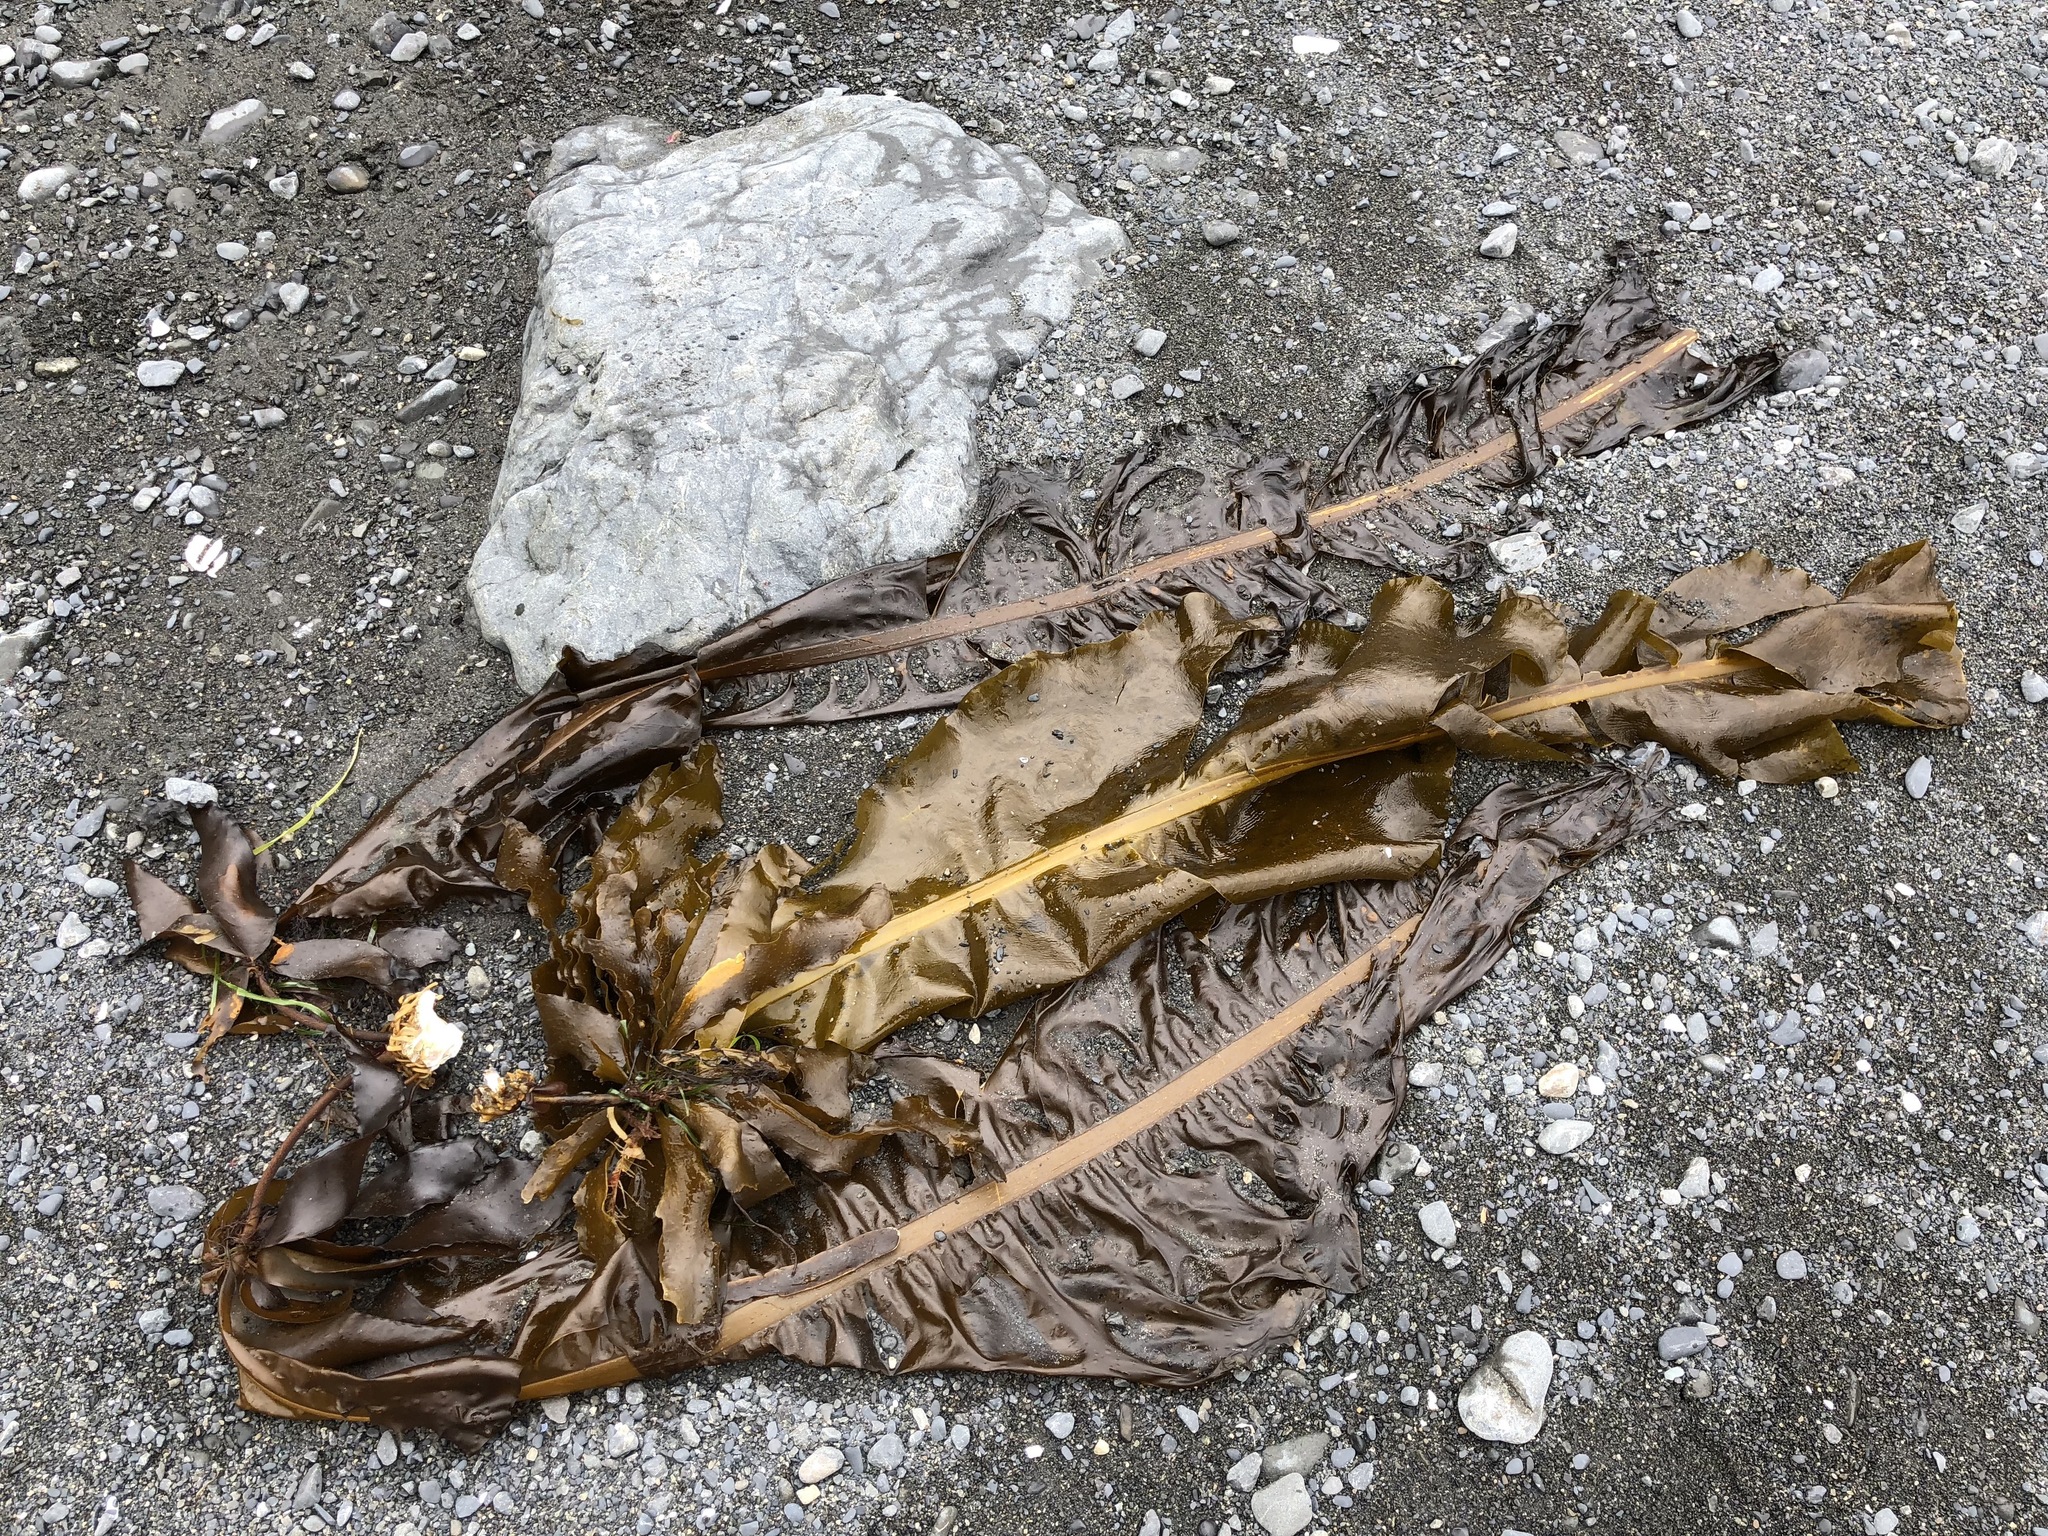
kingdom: Chromista
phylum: Ochrophyta
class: Phaeophyceae
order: Laminariales
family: Alariaceae
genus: Alaria
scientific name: Alaria marginata
